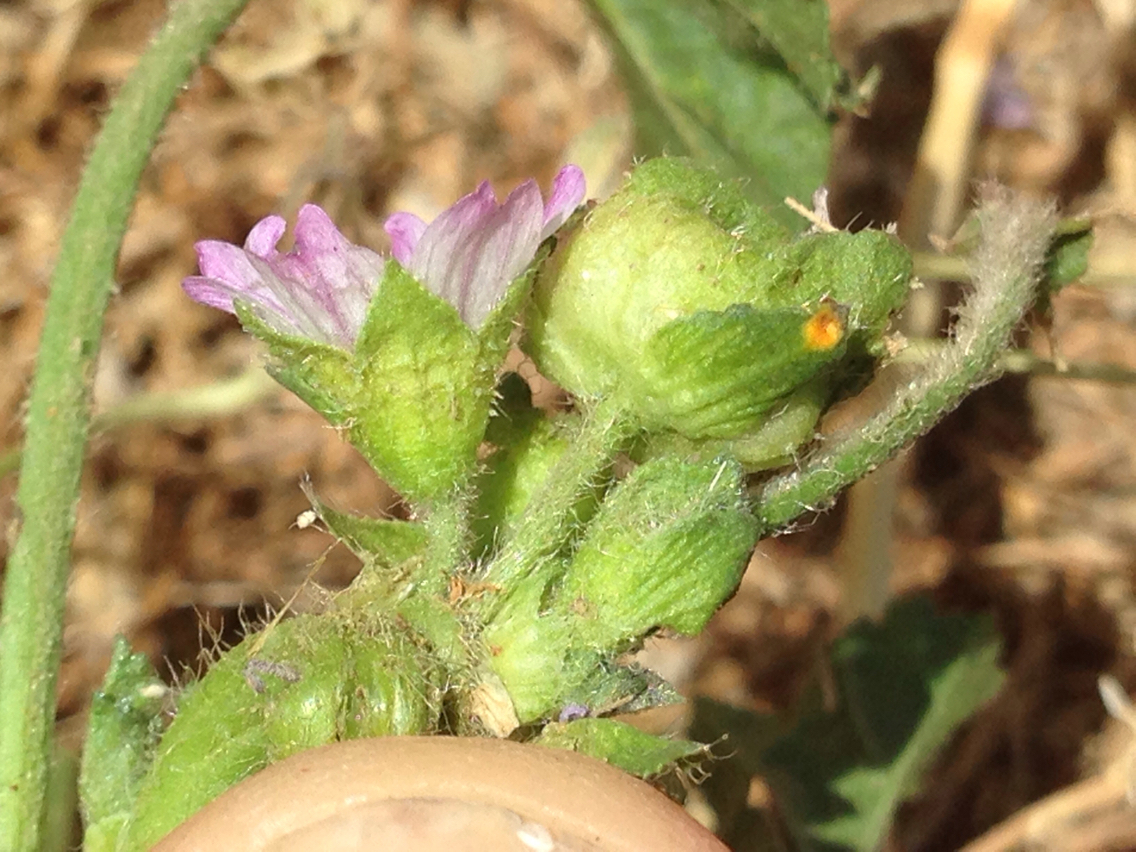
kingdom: Plantae
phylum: Tracheophyta
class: Magnoliopsida
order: Malvales
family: Malvaceae
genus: Malva
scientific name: Malva nicaeensis
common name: French mallow
